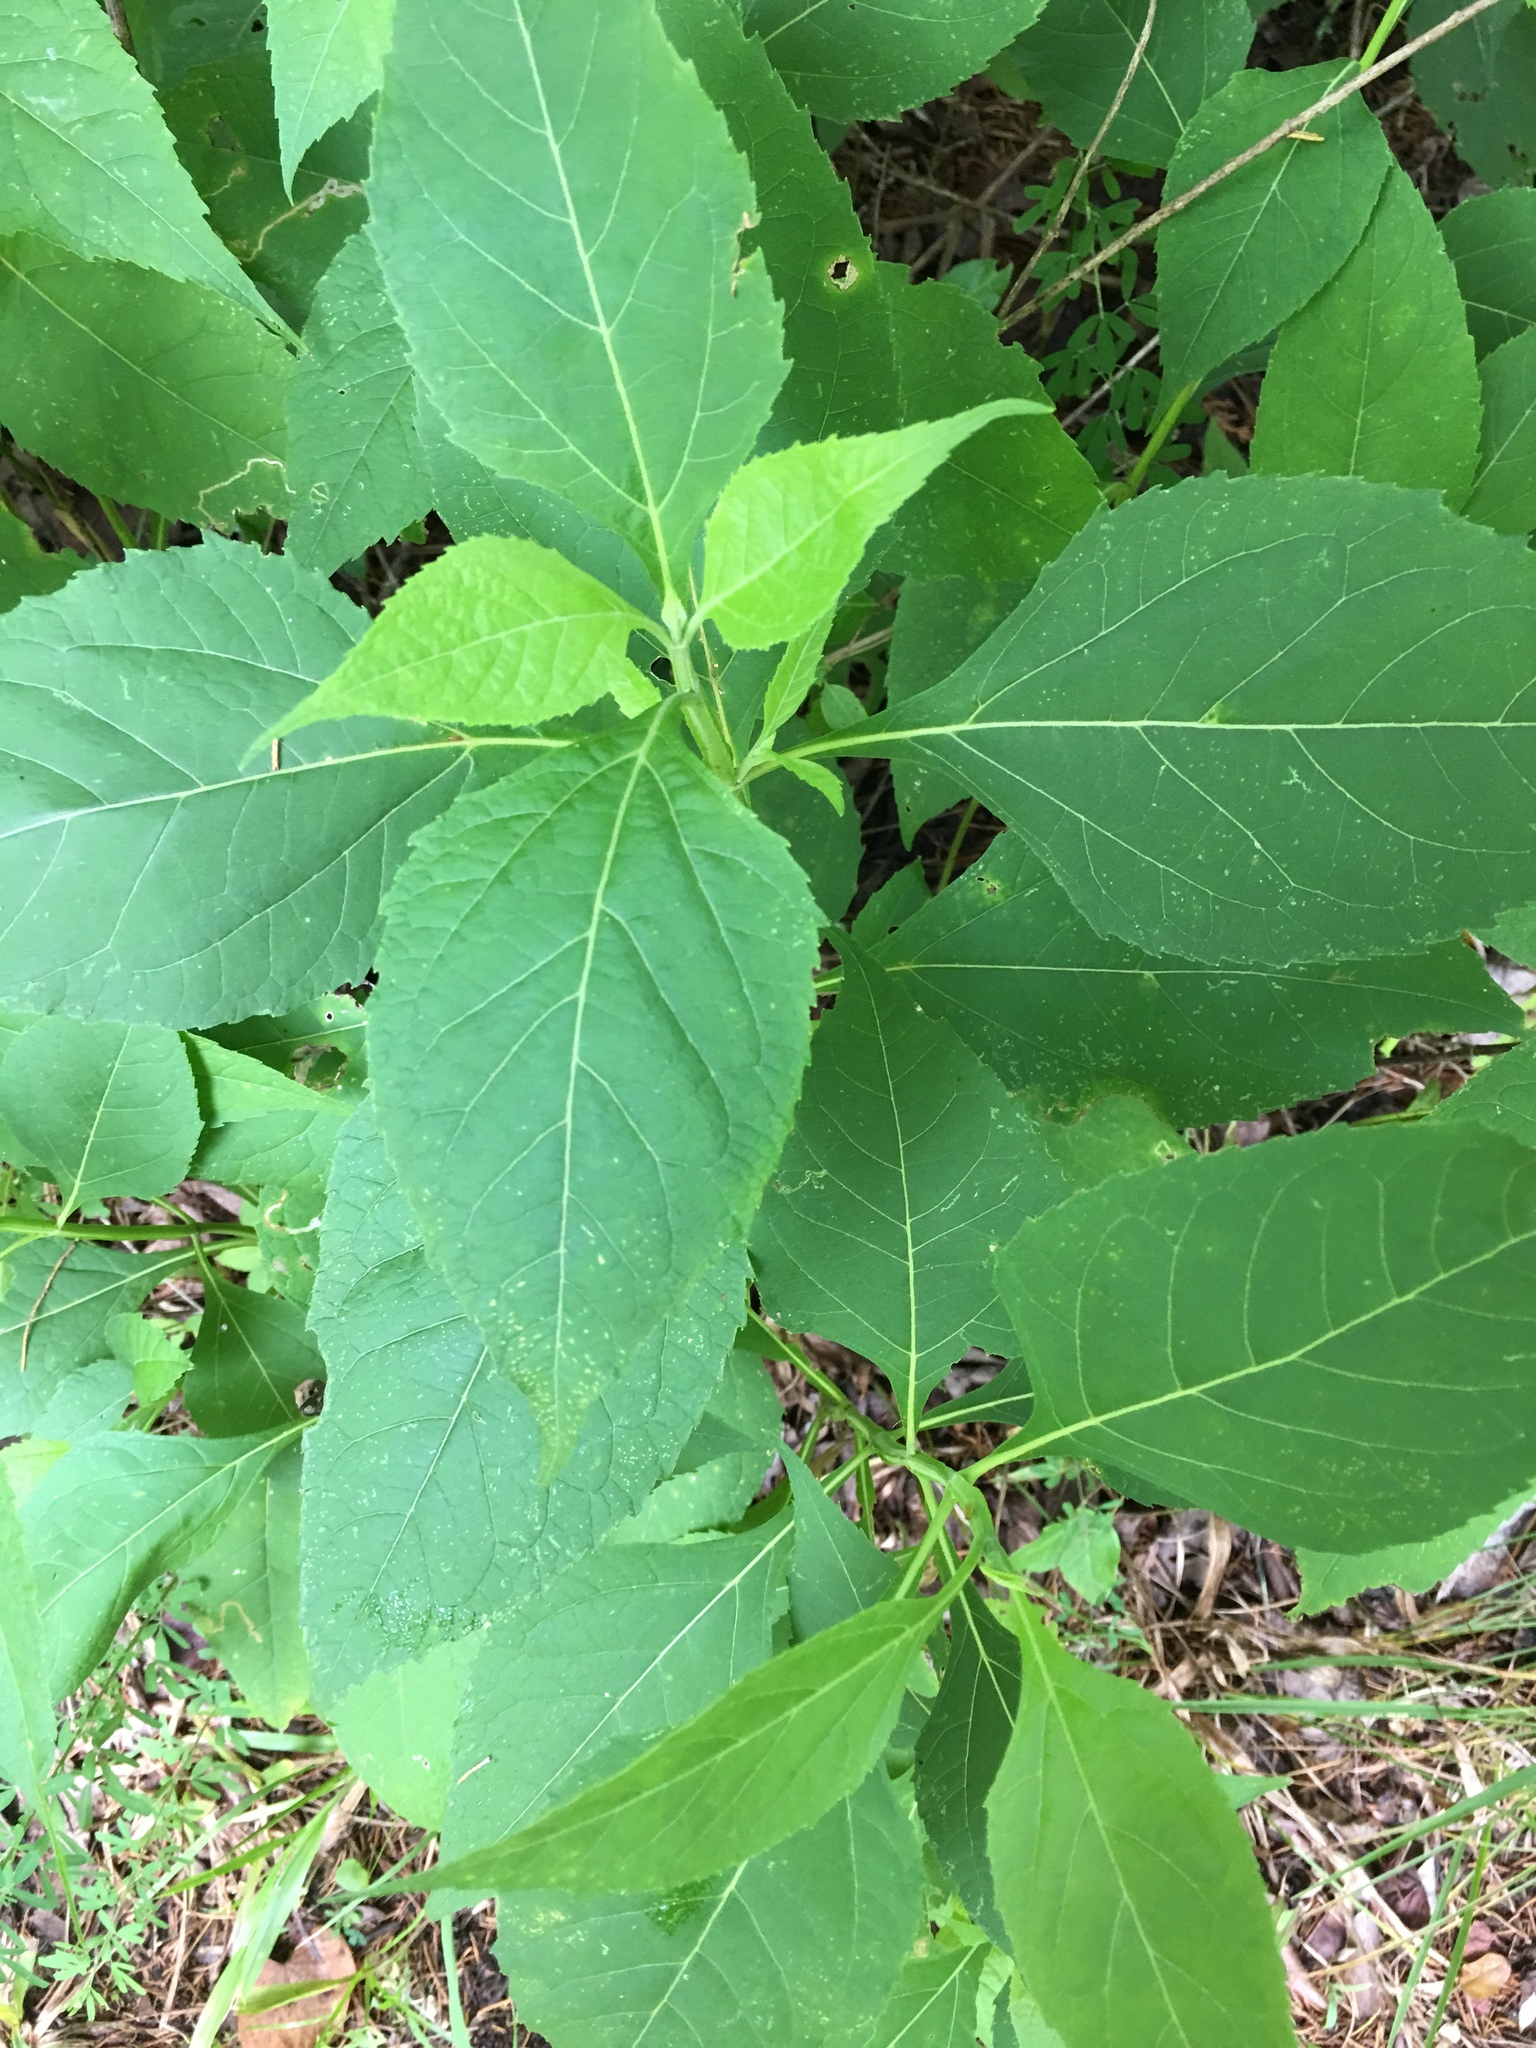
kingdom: Plantae
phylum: Tracheophyta
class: Magnoliopsida
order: Asterales
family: Asteraceae
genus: Verbesina
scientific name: Verbesina occidentalis
